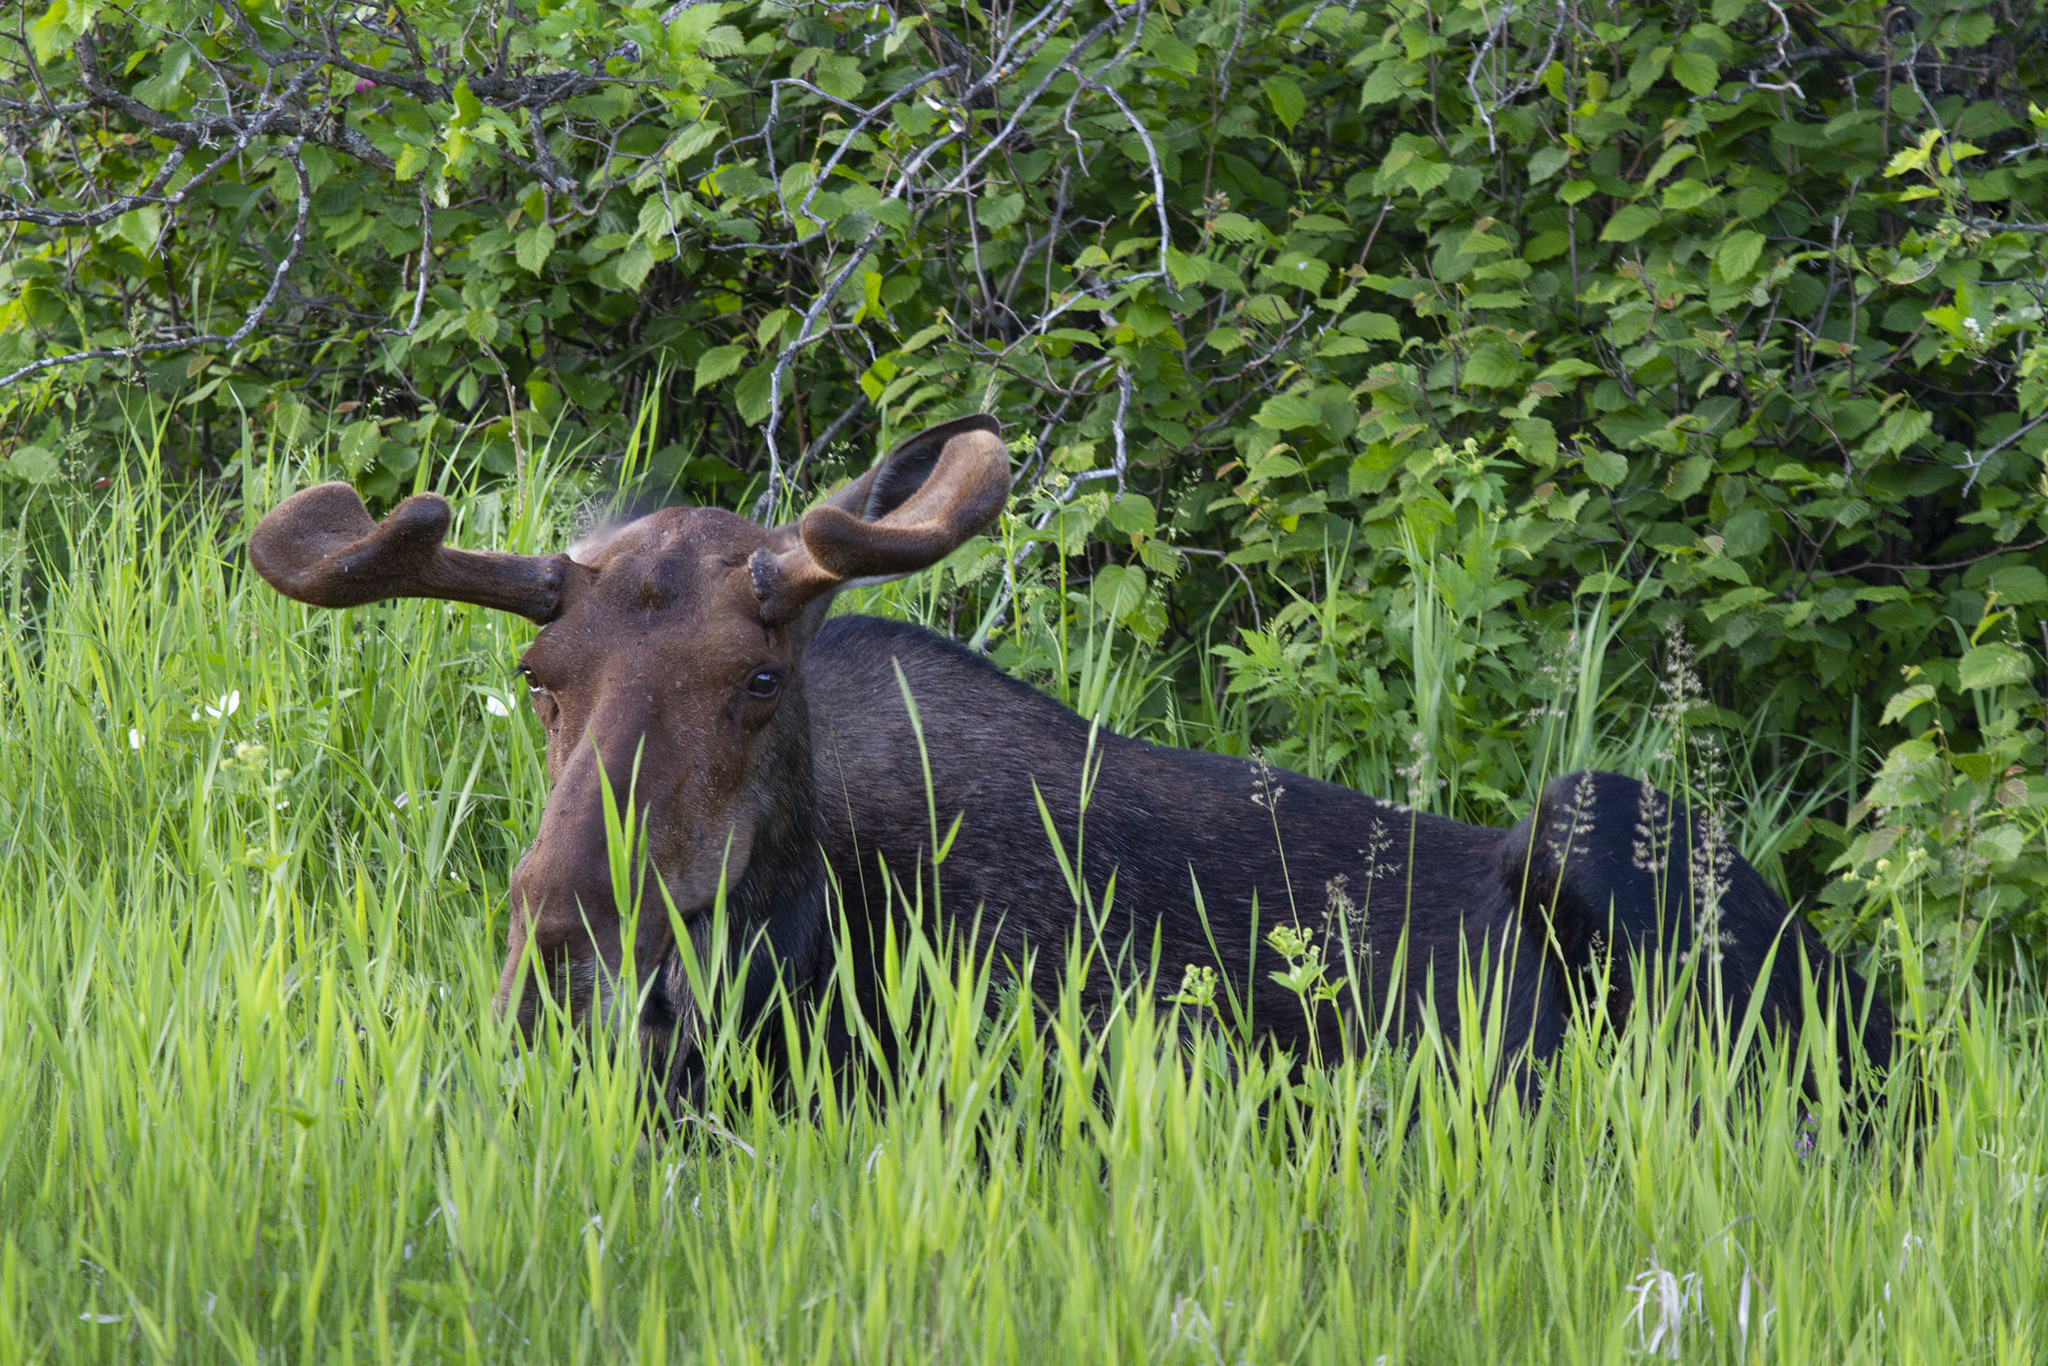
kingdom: Animalia
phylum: Chordata
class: Mammalia
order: Artiodactyla
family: Cervidae
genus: Alces
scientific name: Alces alces
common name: Moose
